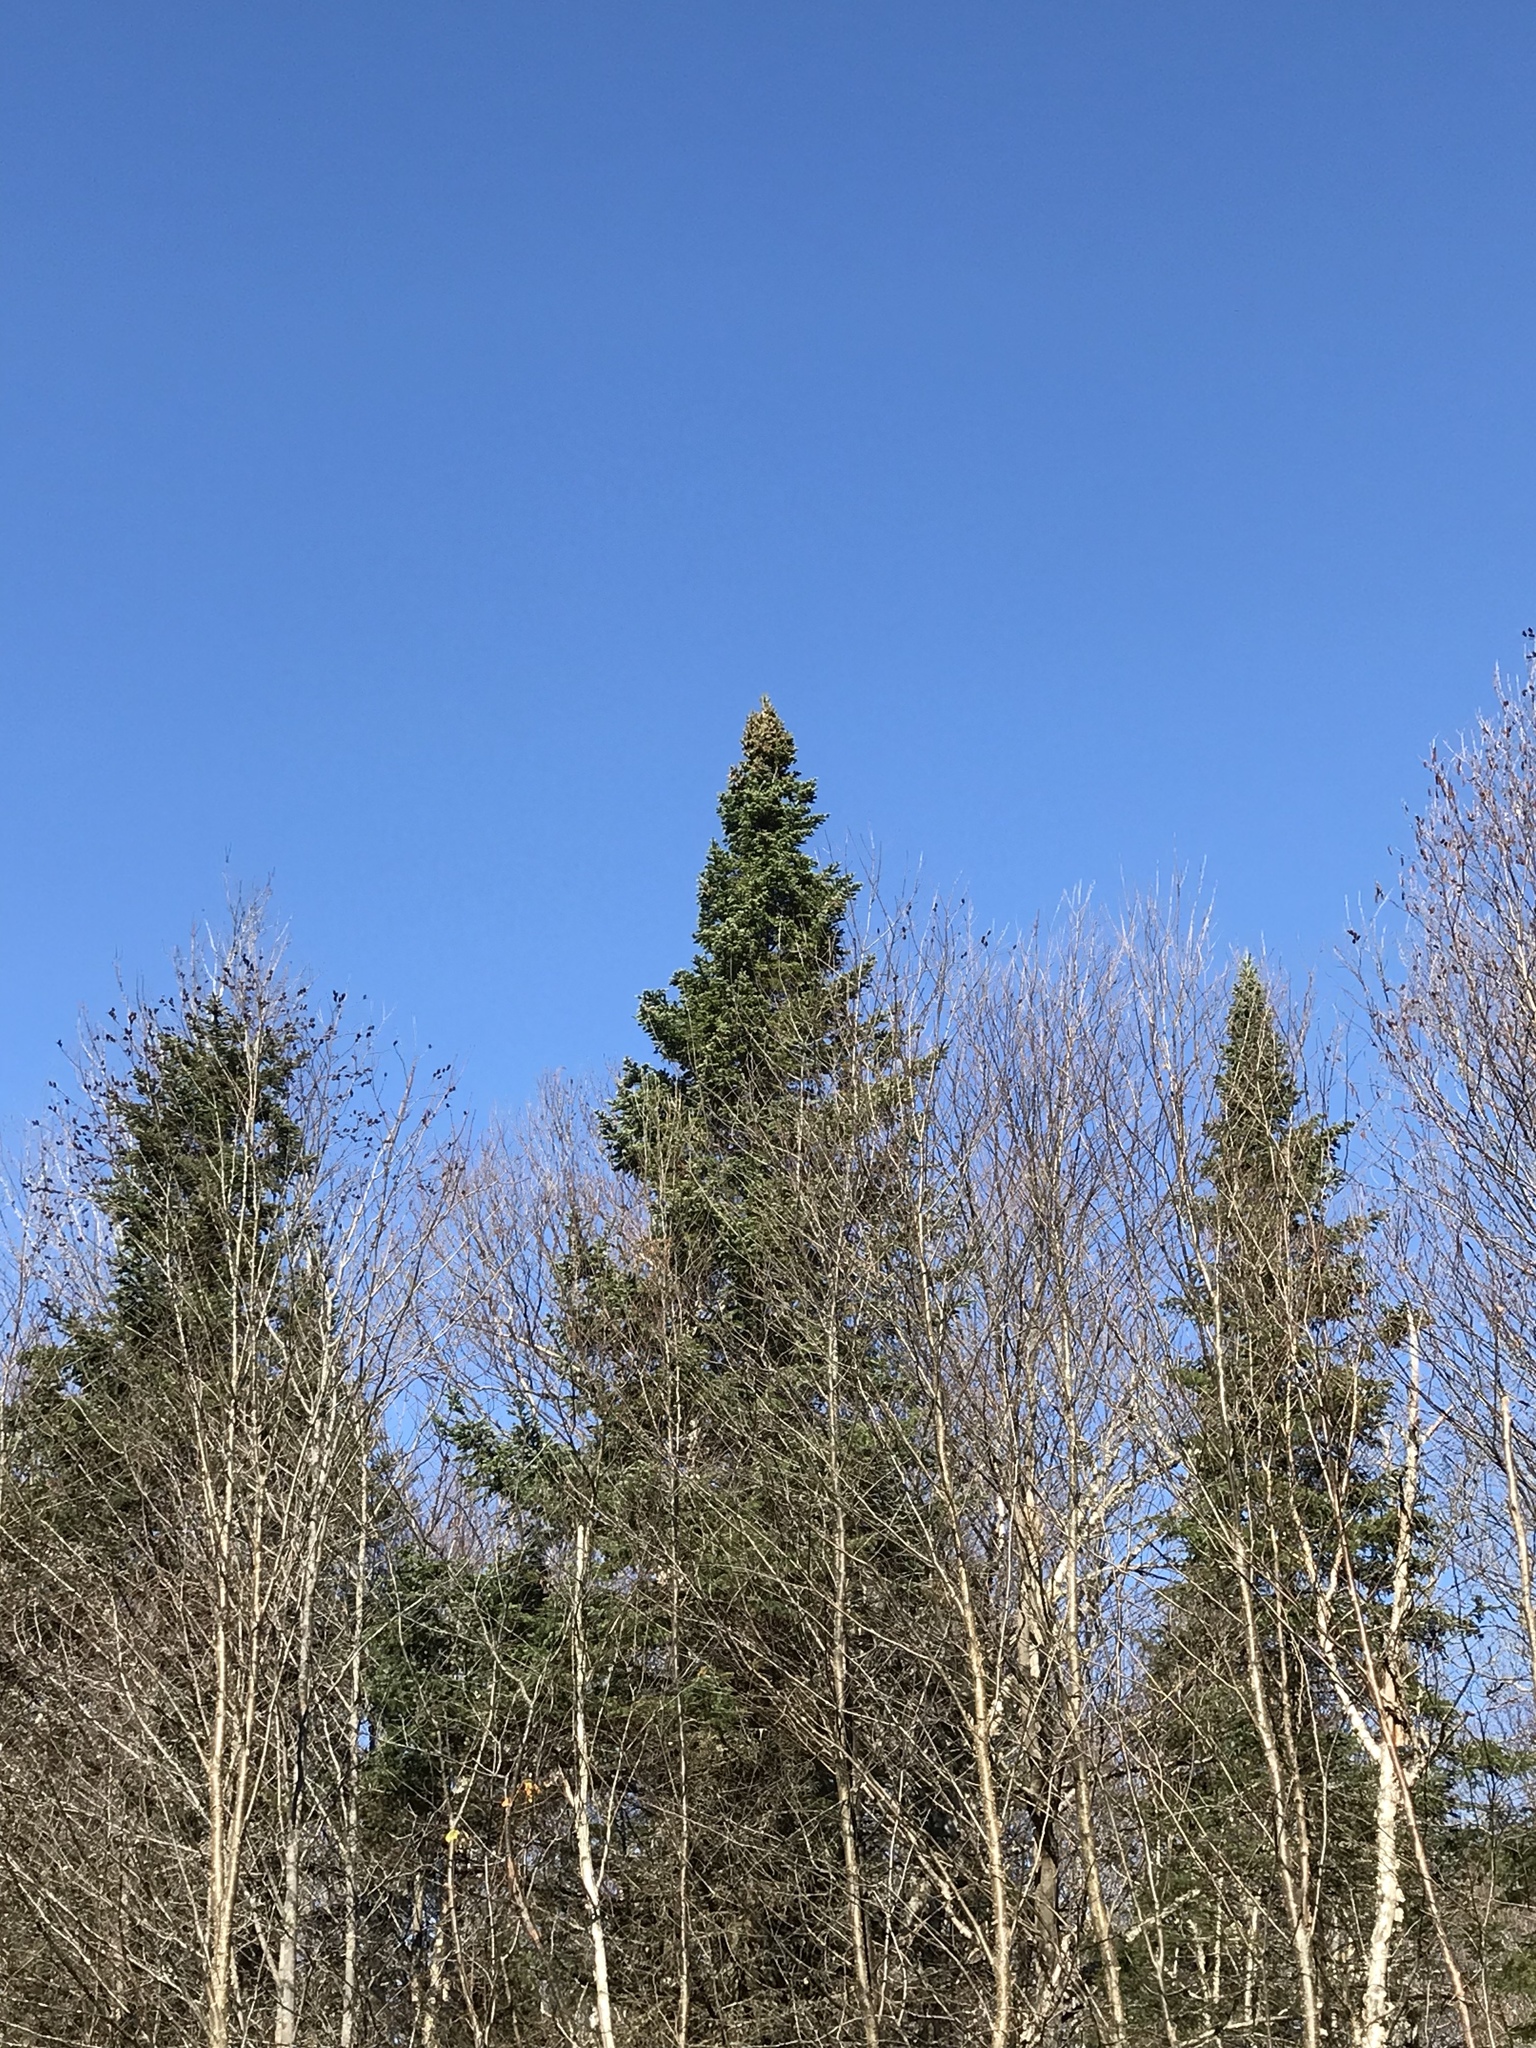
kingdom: Plantae
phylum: Tracheophyta
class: Pinopsida
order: Pinales
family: Pinaceae
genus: Abies
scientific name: Abies balsamea
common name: Balsam fir
